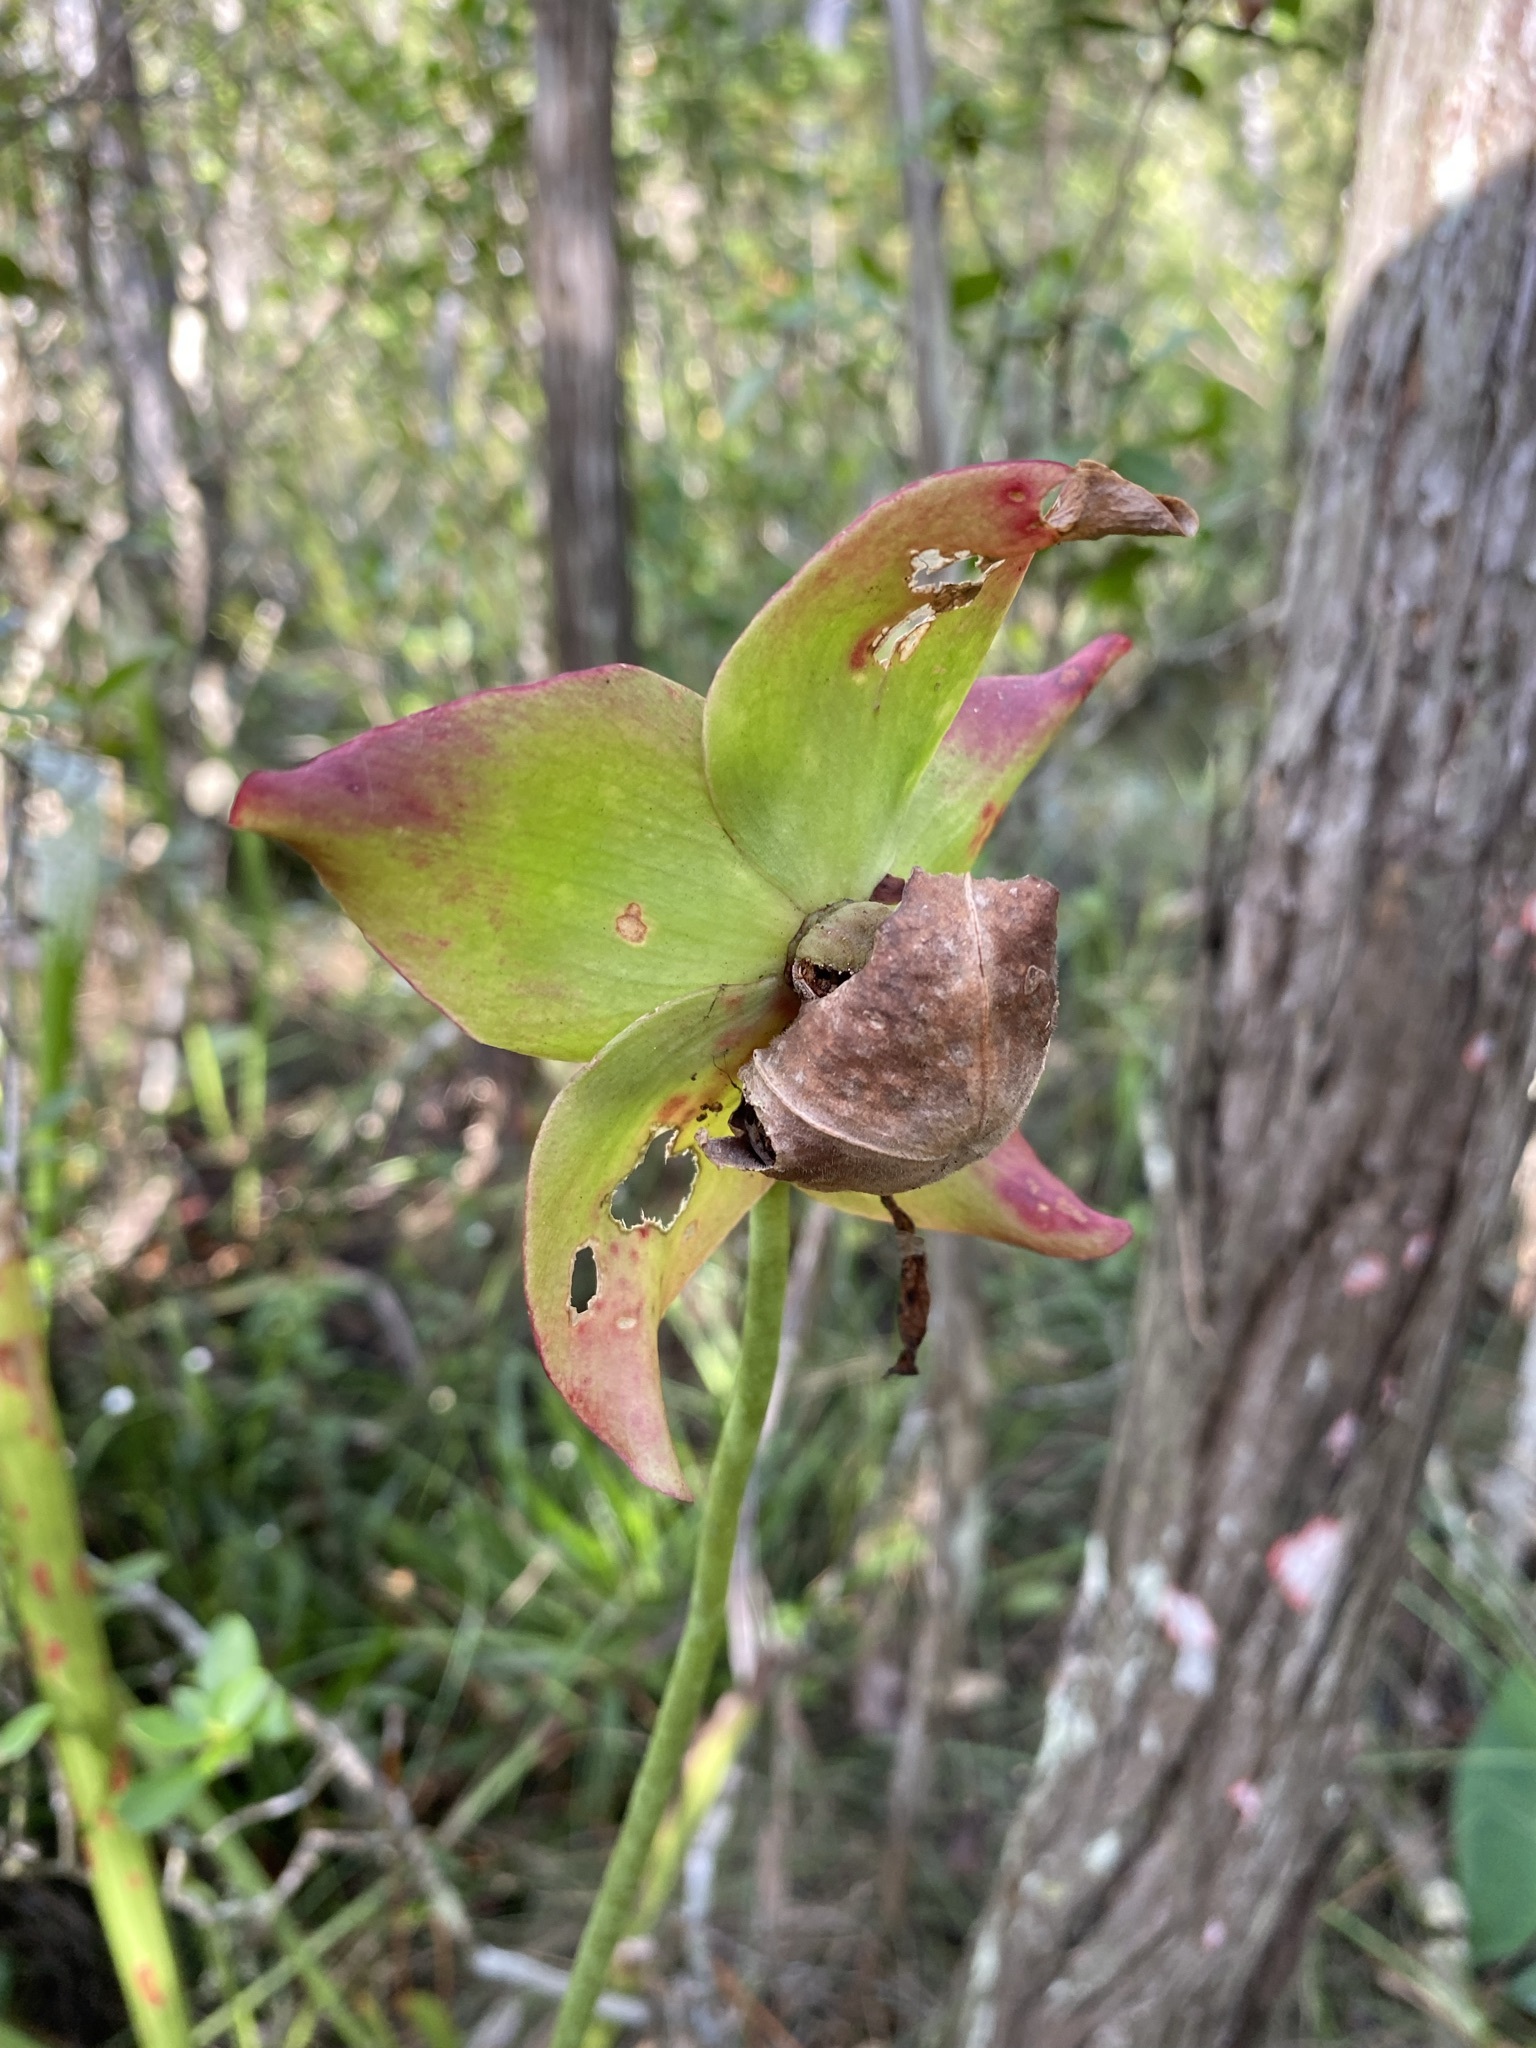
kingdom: Plantae
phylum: Tracheophyta
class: Magnoliopsida
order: Ericales
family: Sarraceniaceae
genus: Sarracenia
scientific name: Sarracenia leucophylla
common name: Purple trumpetleaf
